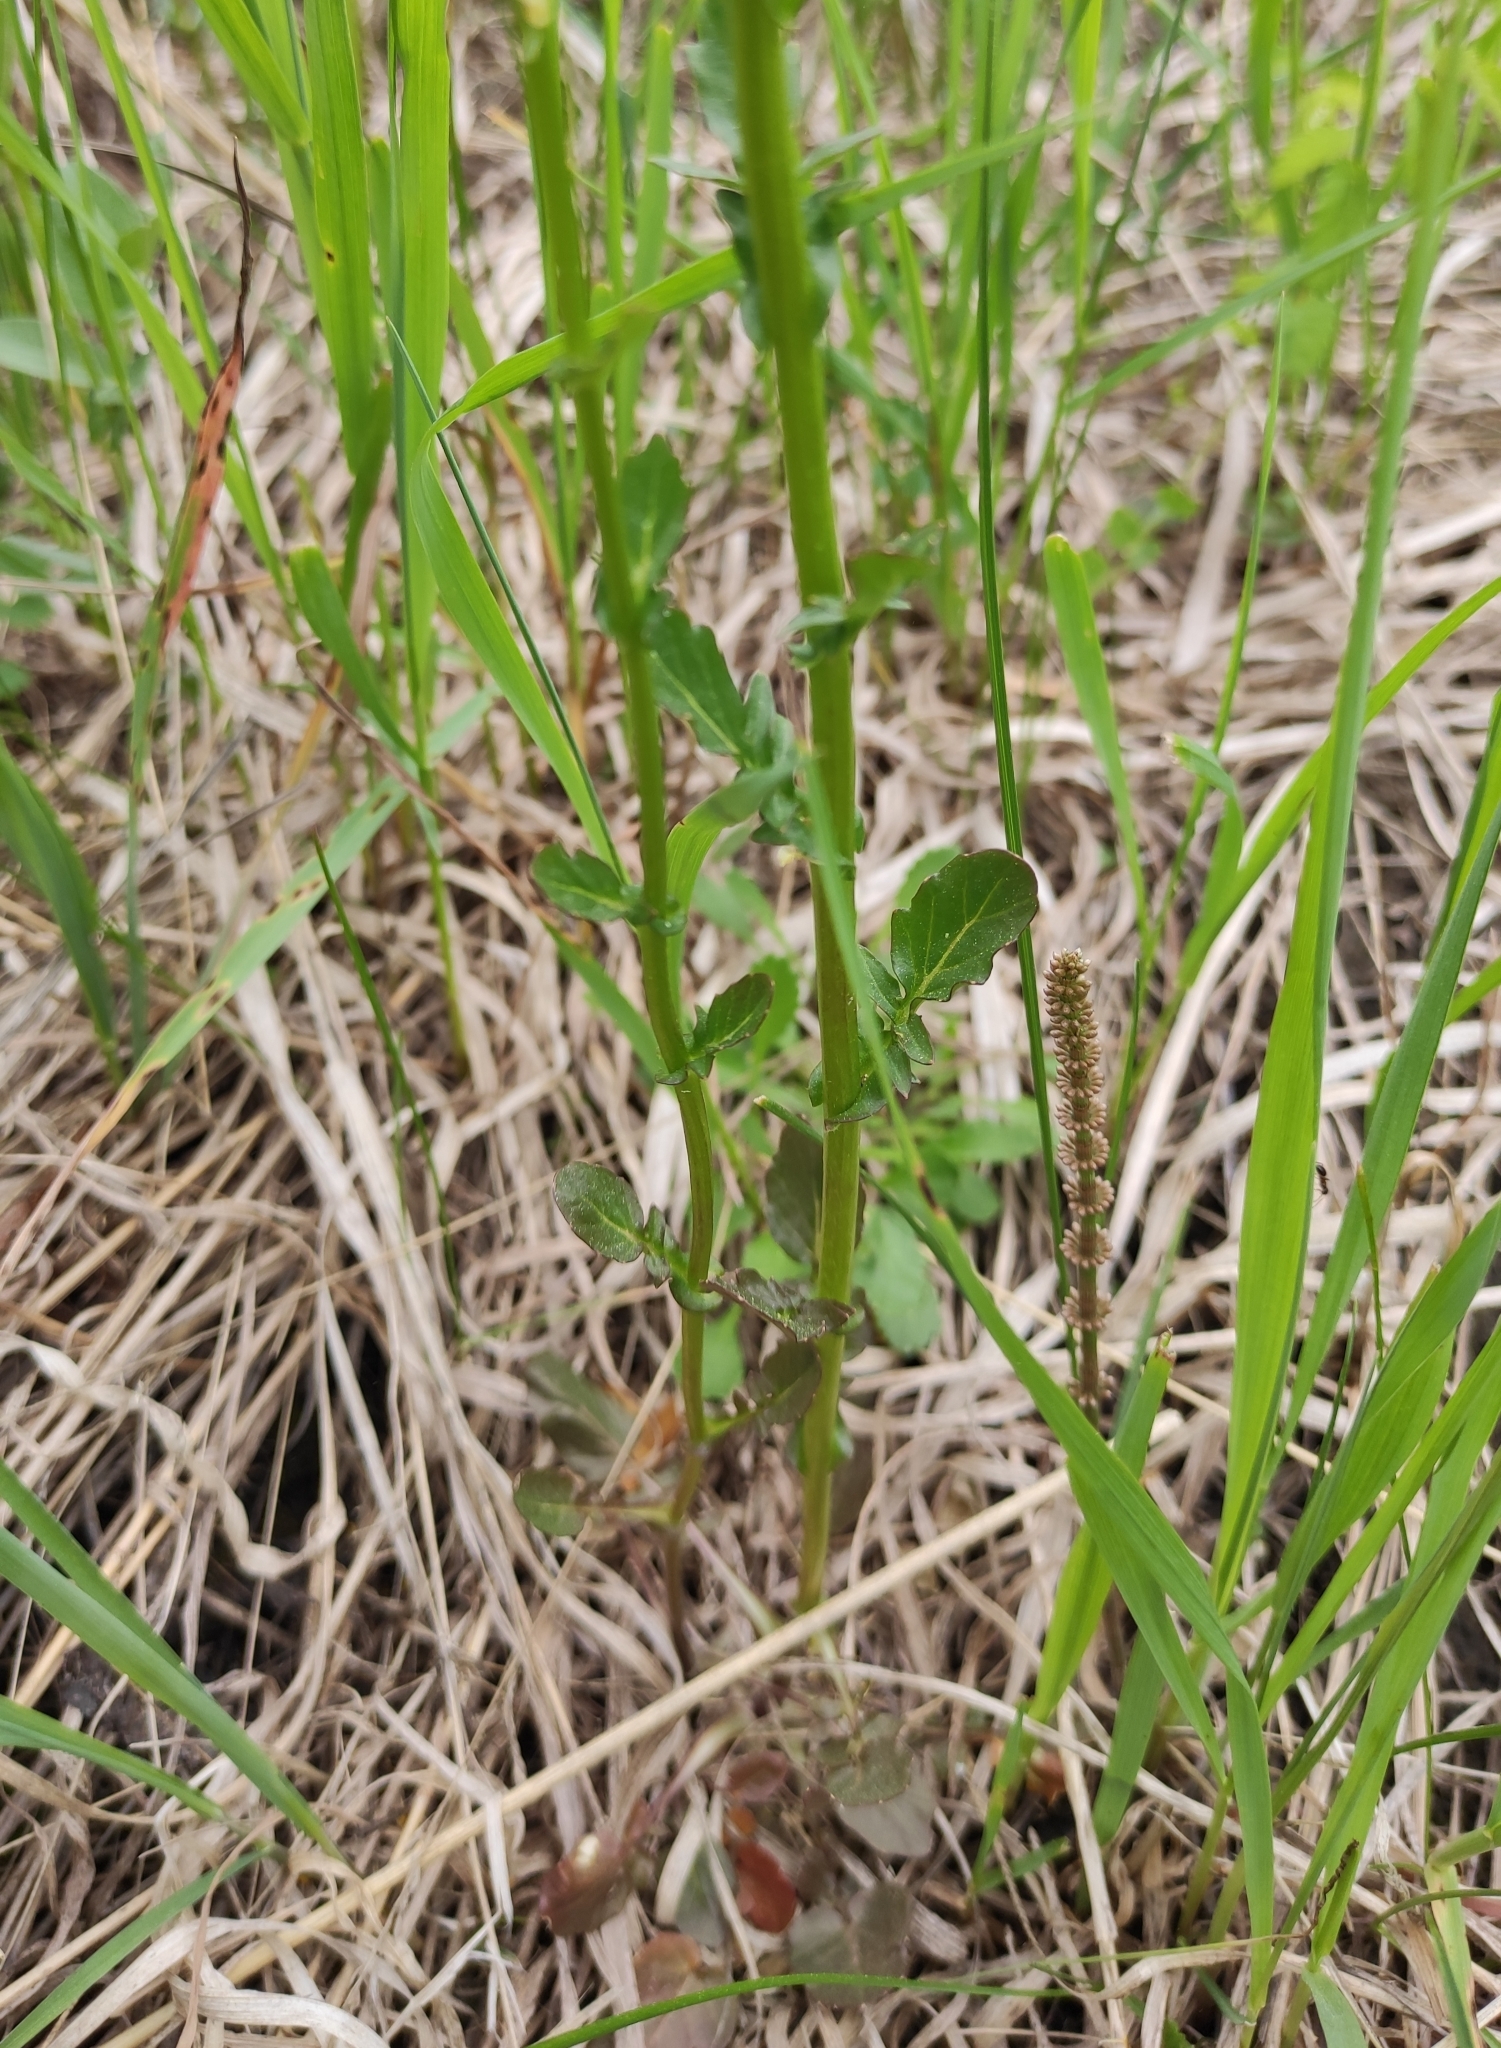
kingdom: Plantae
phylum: Tracheophyta
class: Magnoliopsida
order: Brassicales
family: Brassicaceae
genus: Barbarea
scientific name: Barbarea vulgaris
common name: Cressy-greens
